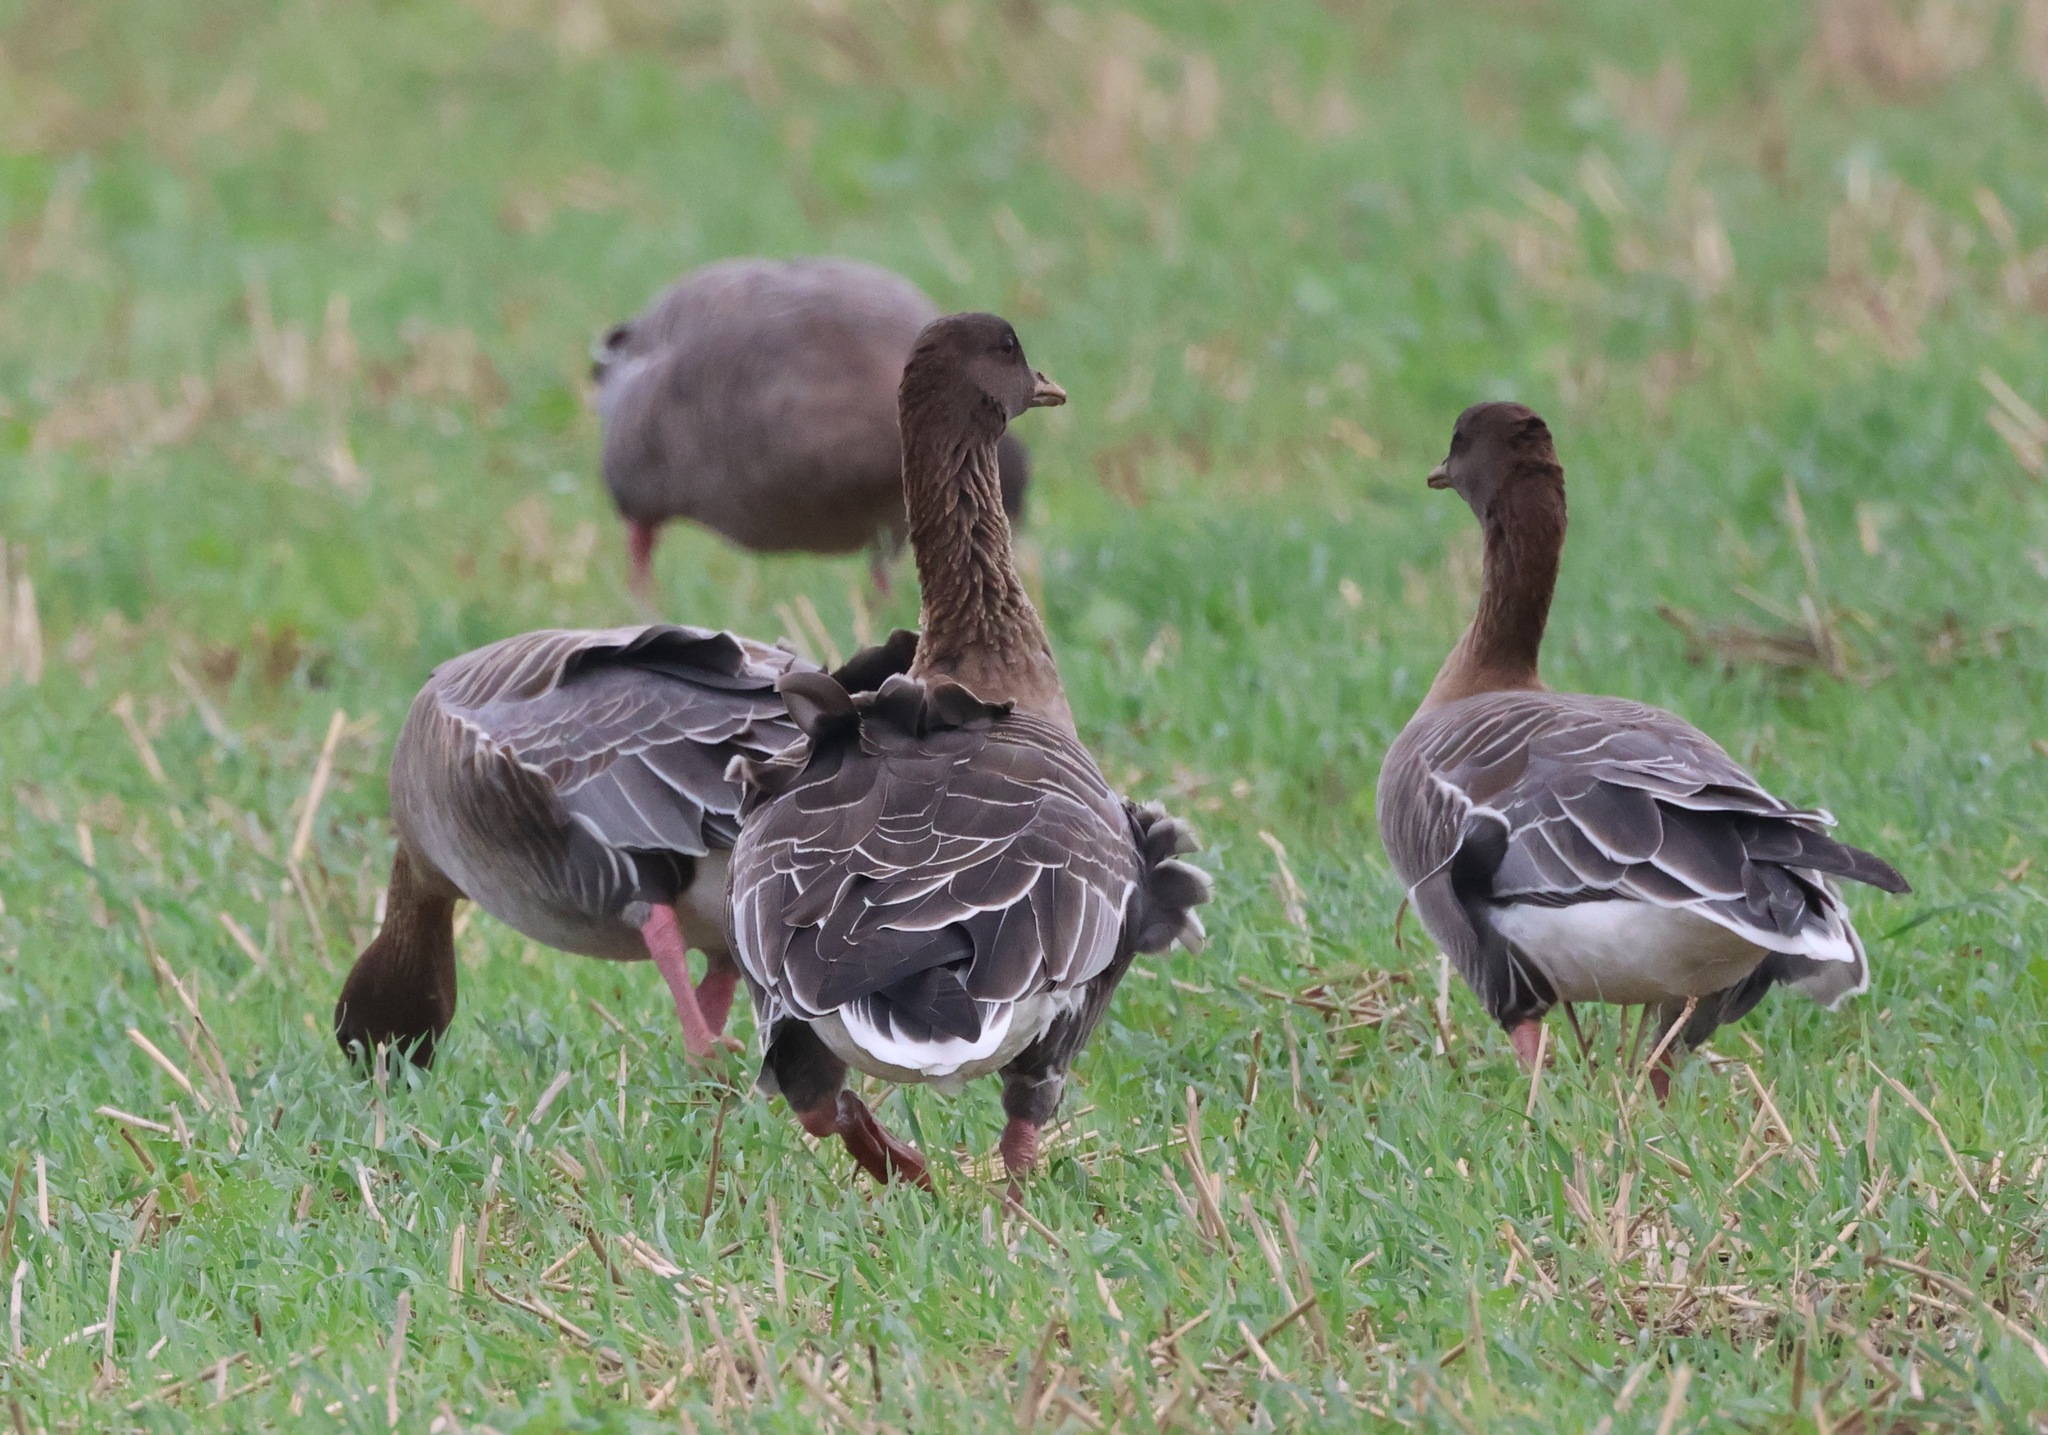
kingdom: Animalia
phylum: Chordata
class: Aves
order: Anseriformes
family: Anatidae
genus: Anser
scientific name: Anser brachyrhynchus
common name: Pink-footed goose
